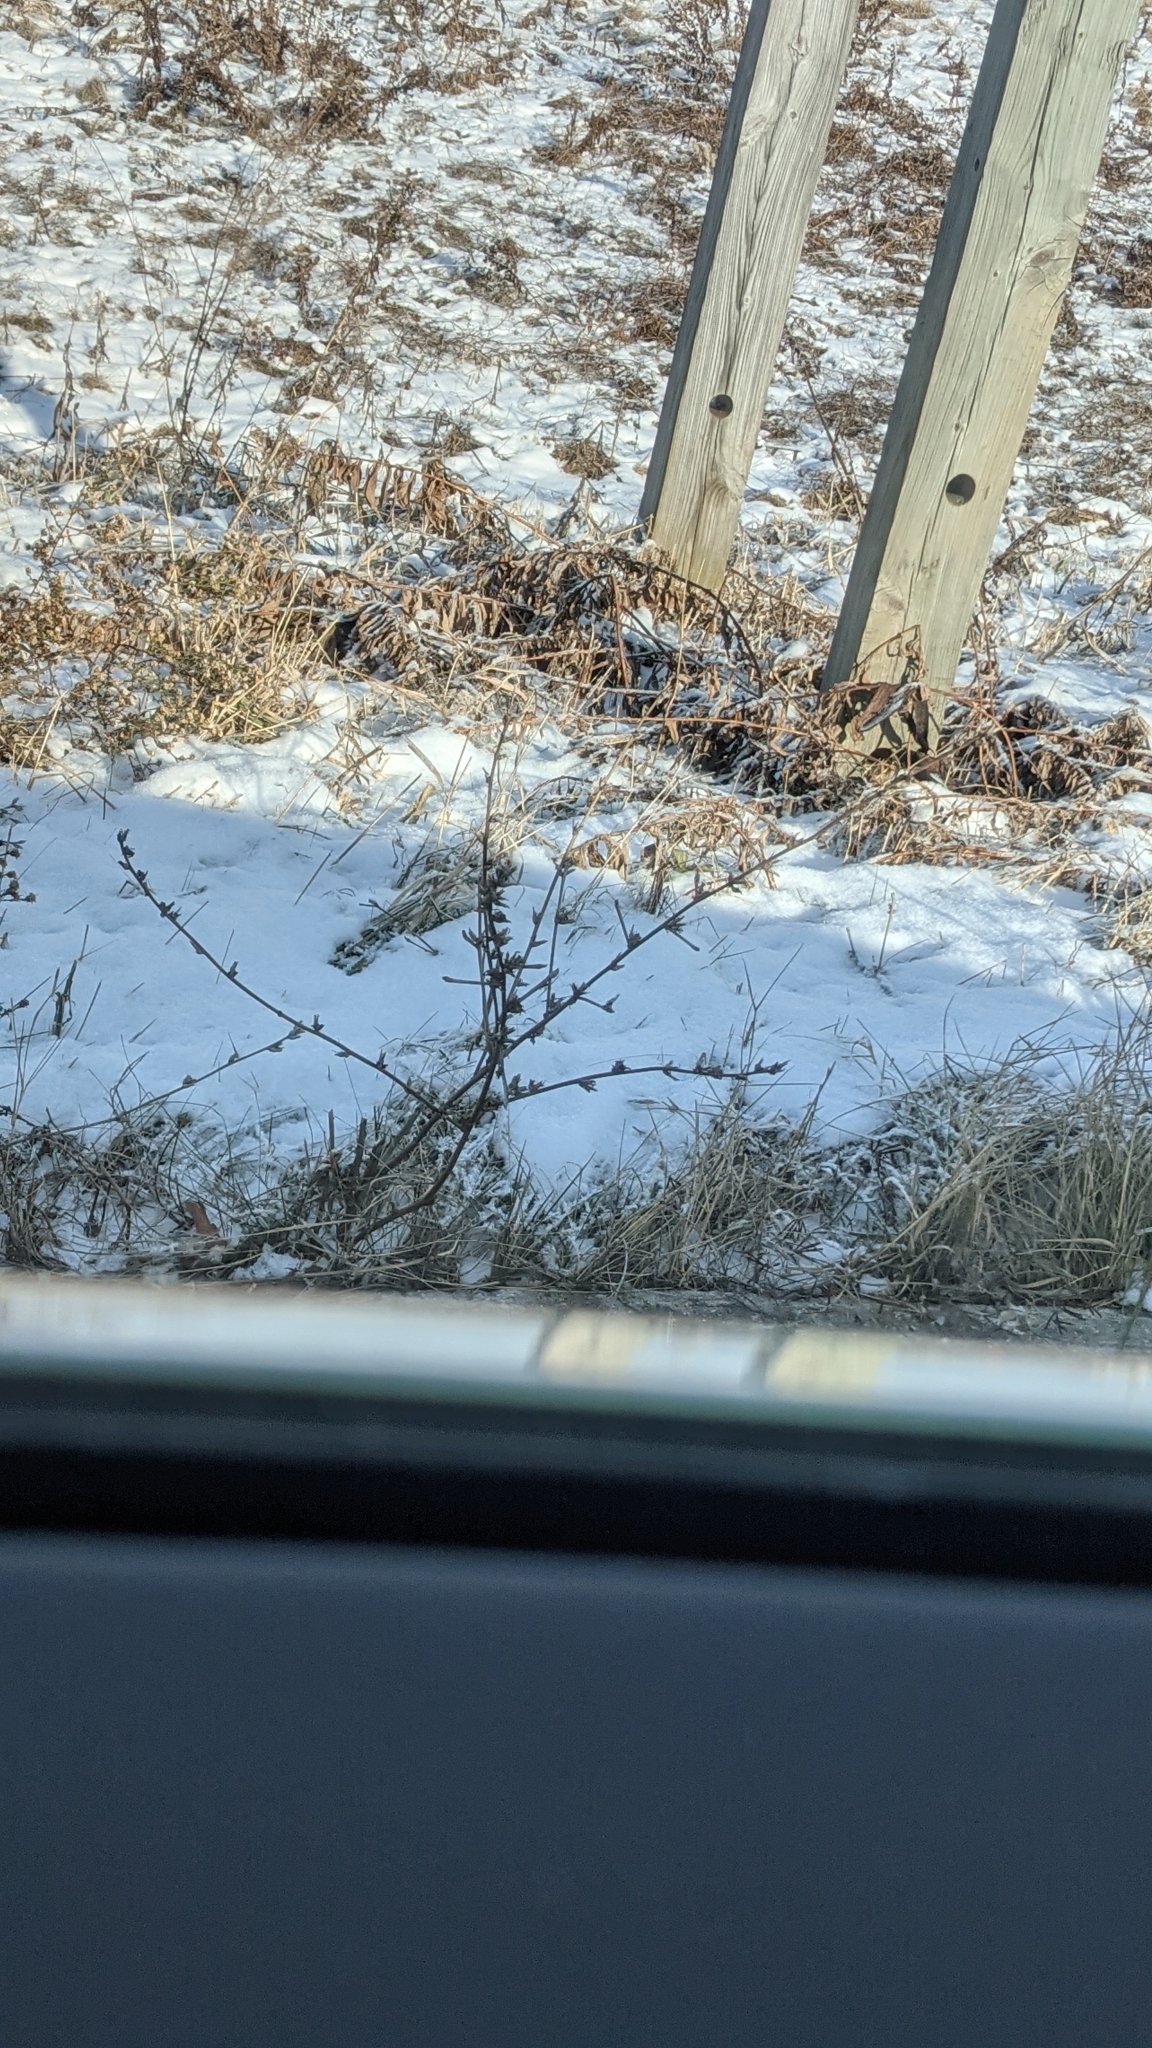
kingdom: Plantae
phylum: Tracheophyta
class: Magnoliopsida
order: Asterales
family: Asteraceae
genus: Cichorium
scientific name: Cichorium intybus
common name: Chicory
